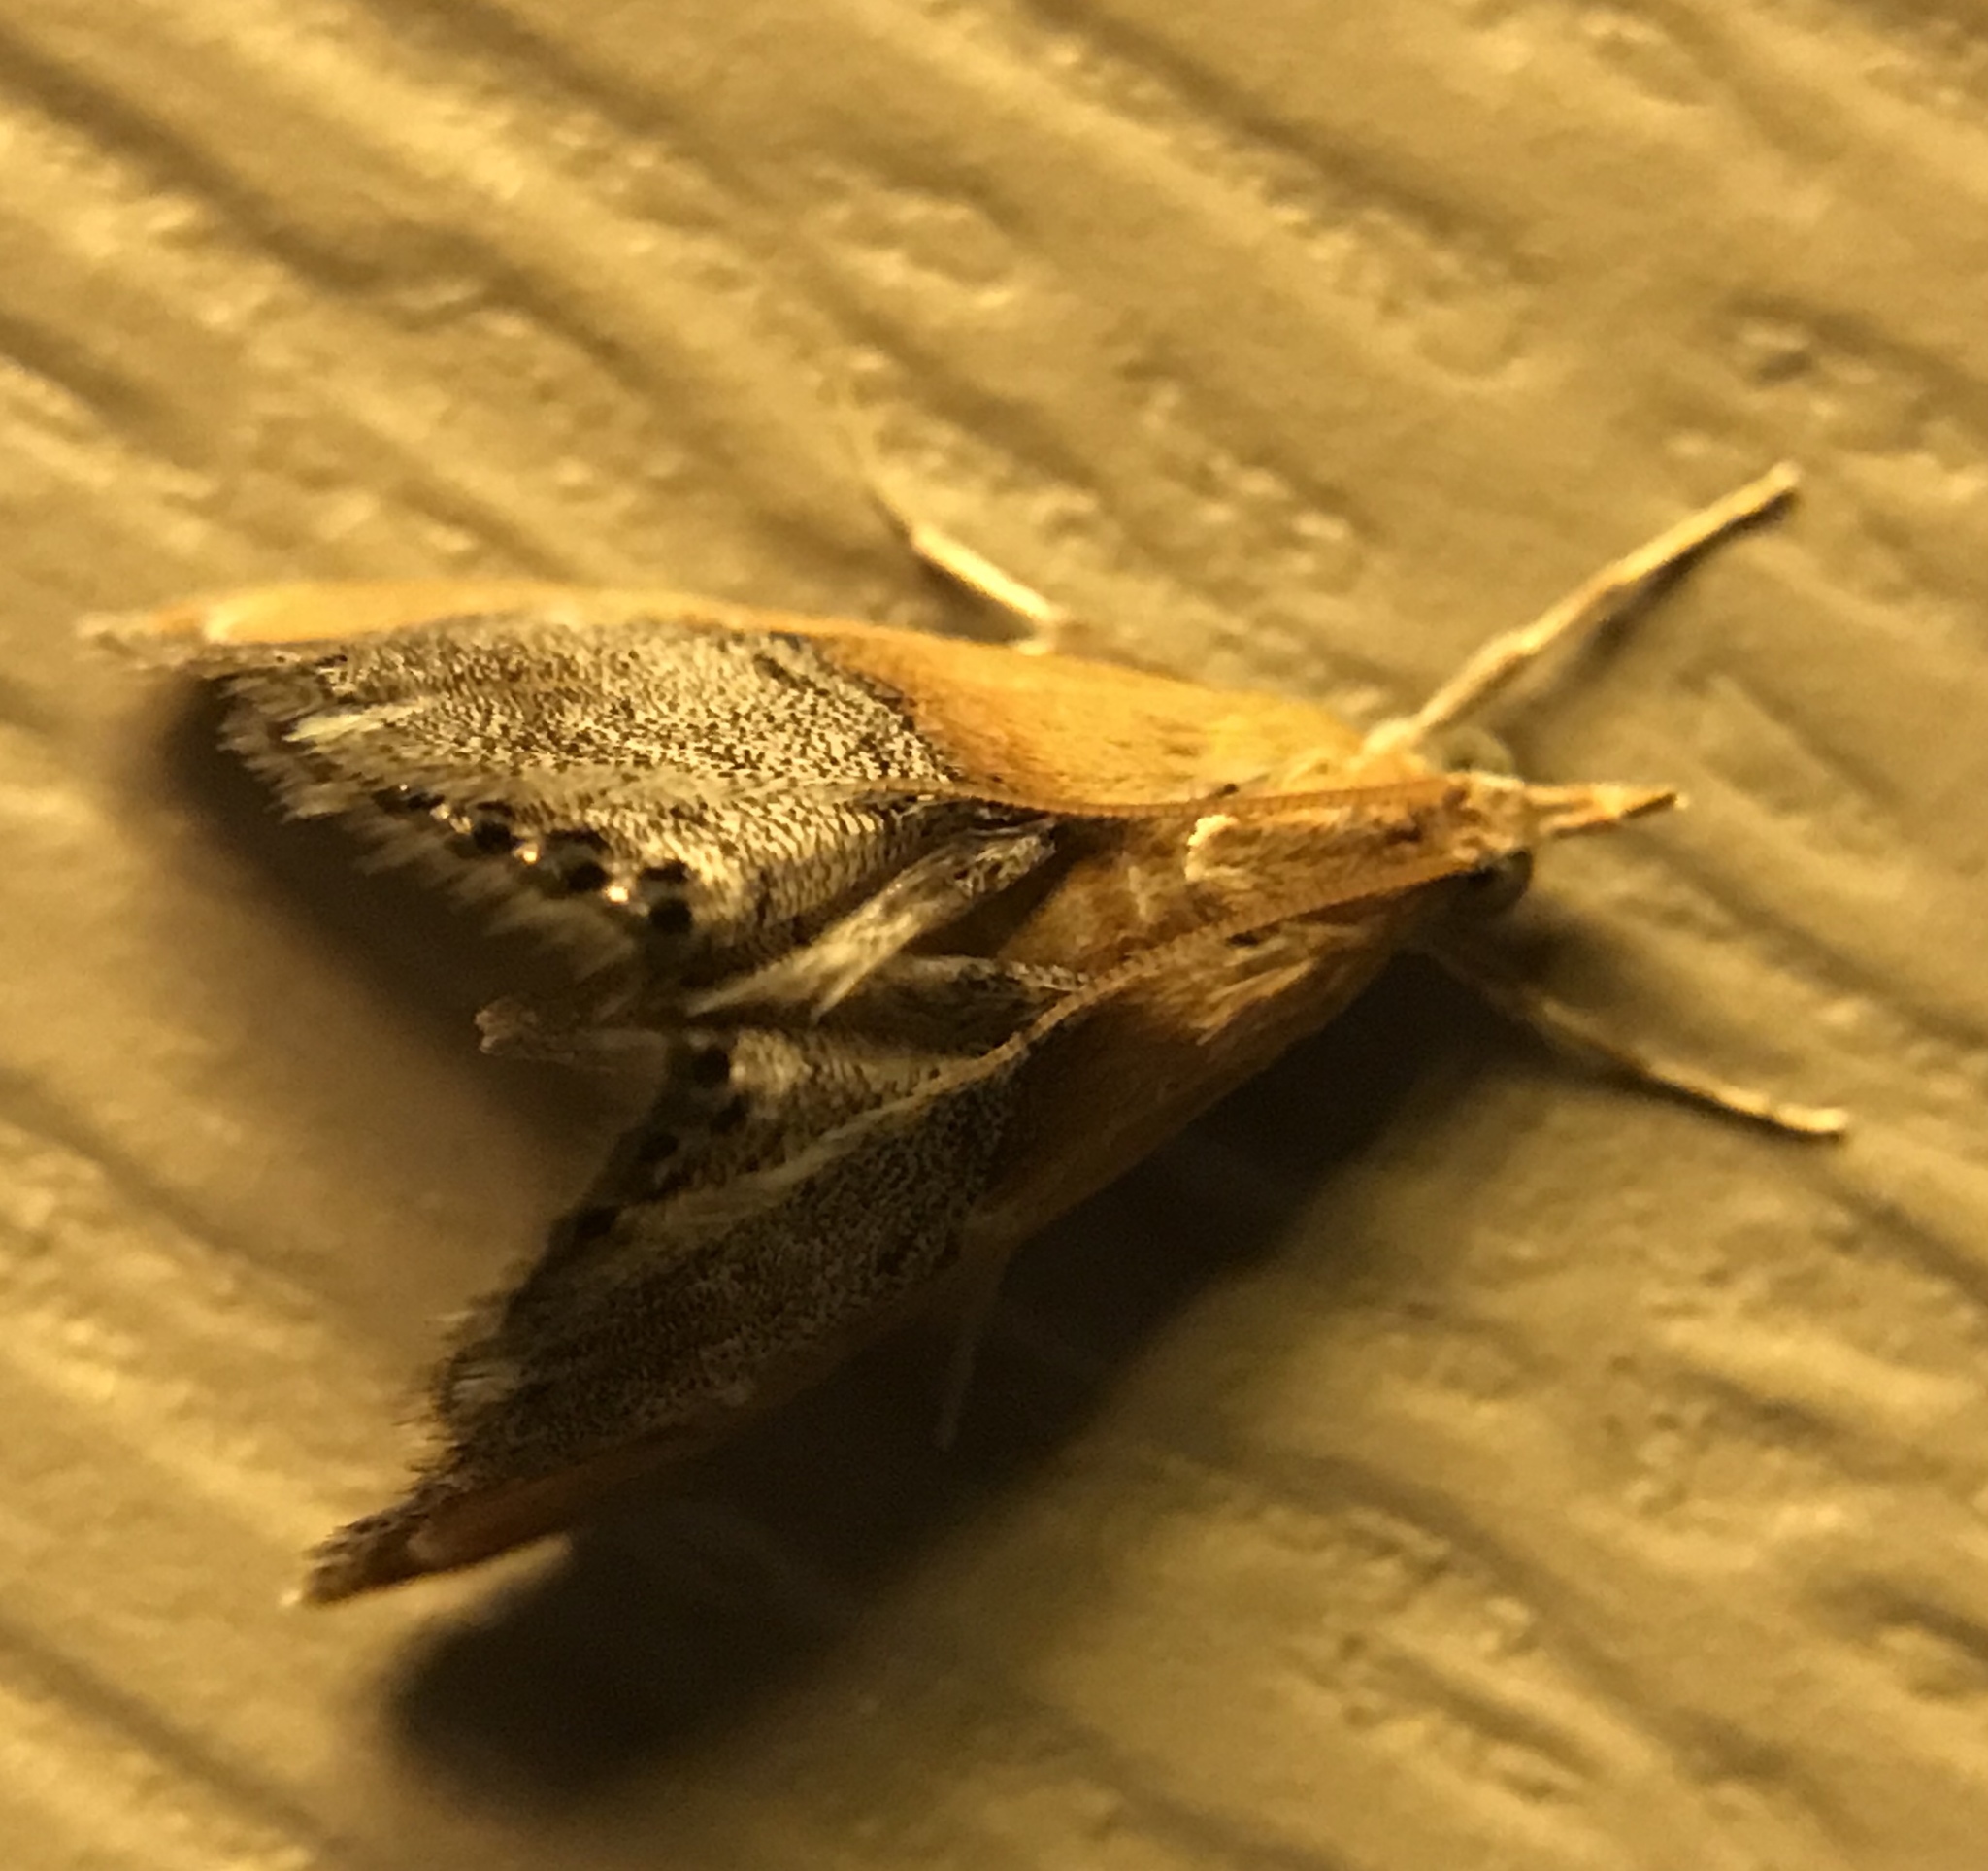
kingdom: Animalia
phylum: Arthropoda
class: Insecta
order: Lepidoptera
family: Crambidae
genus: Chalcoela
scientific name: Chalcoela iphitalis
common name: Sooty-winged chalcoela moth
